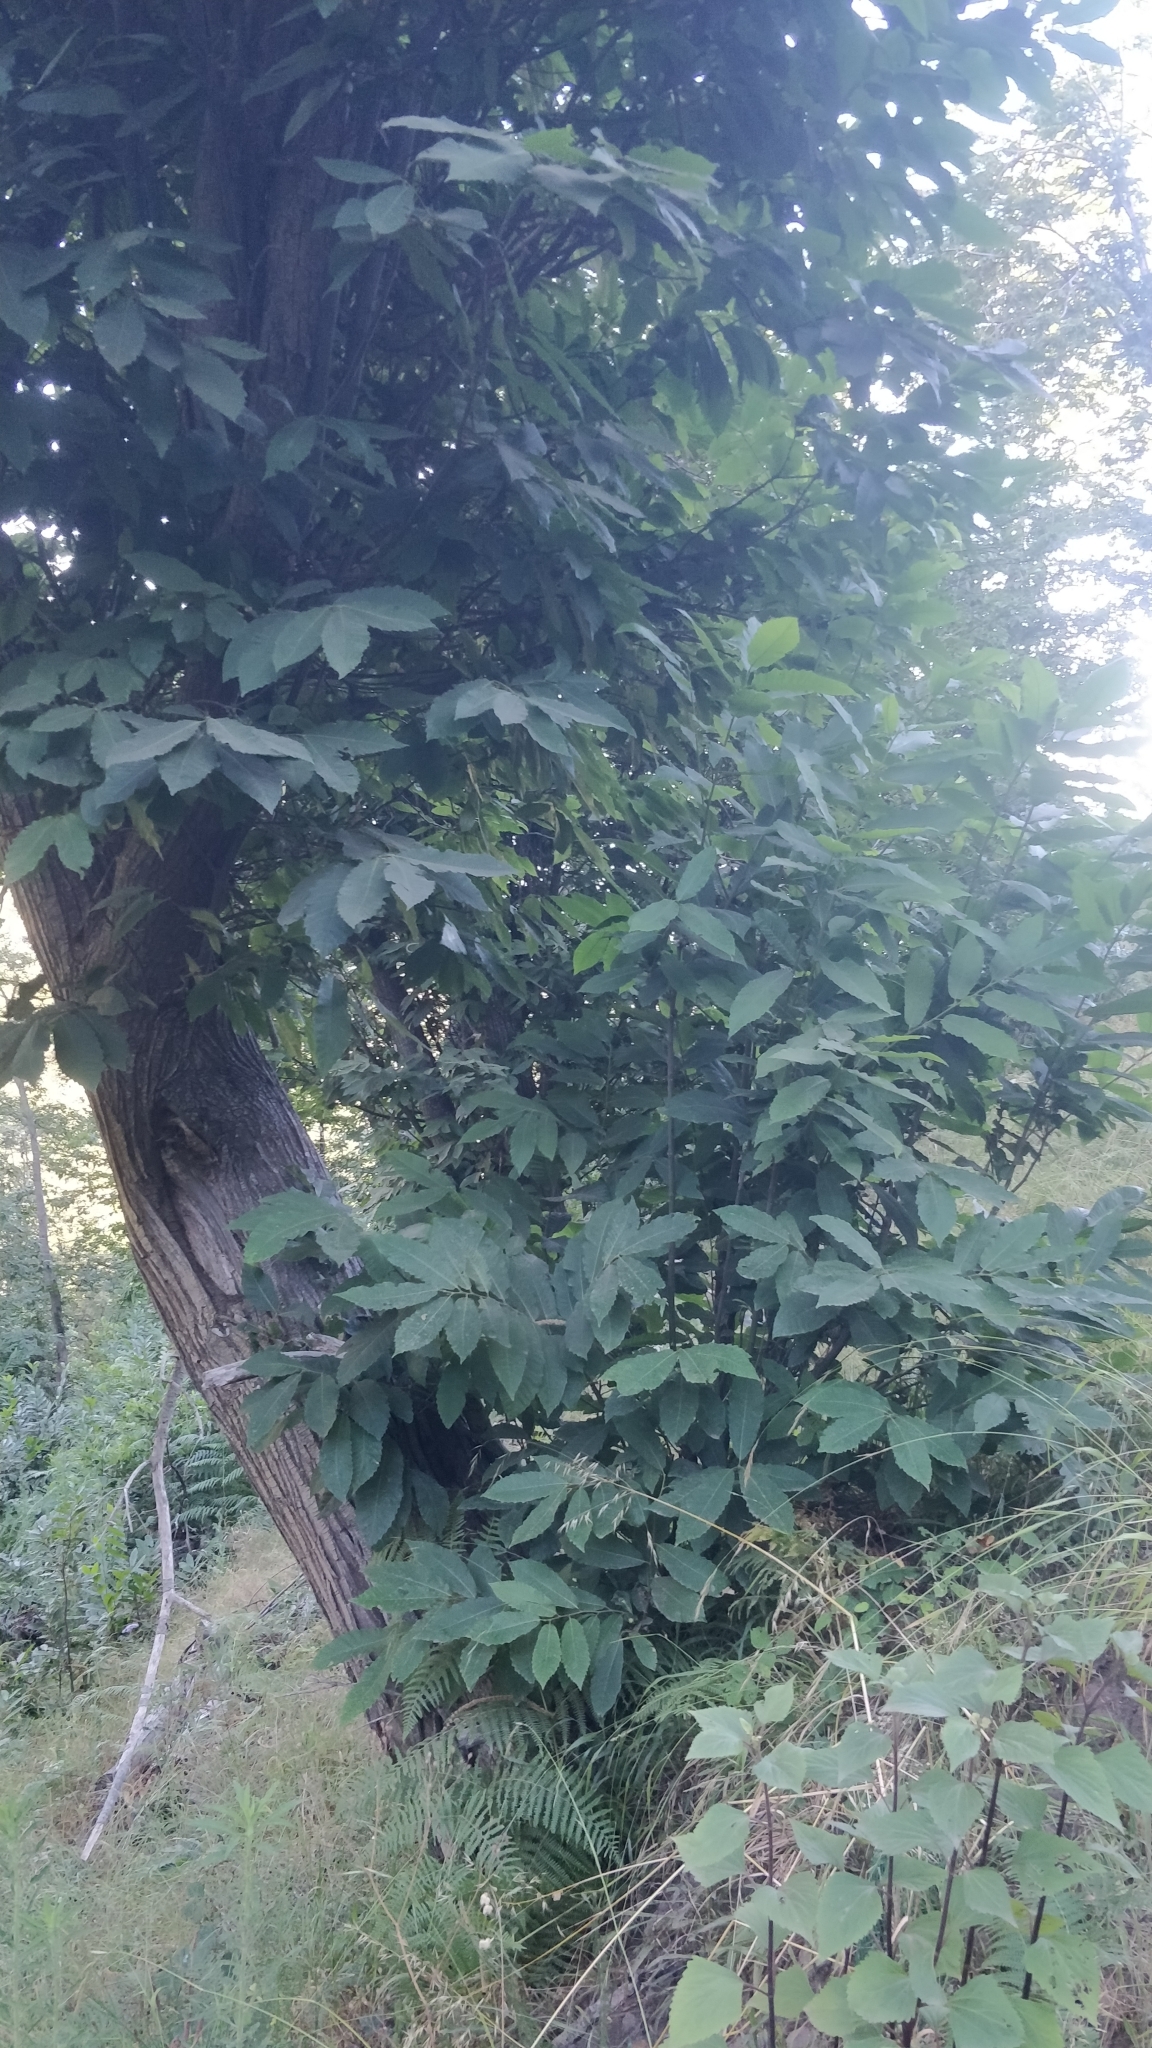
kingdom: Plantae
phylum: Tracheophyta
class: Magnoliopsida
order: Fagales
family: Fagaceae
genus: Castanea
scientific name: Castanea sativa
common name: Sweet chestnut
